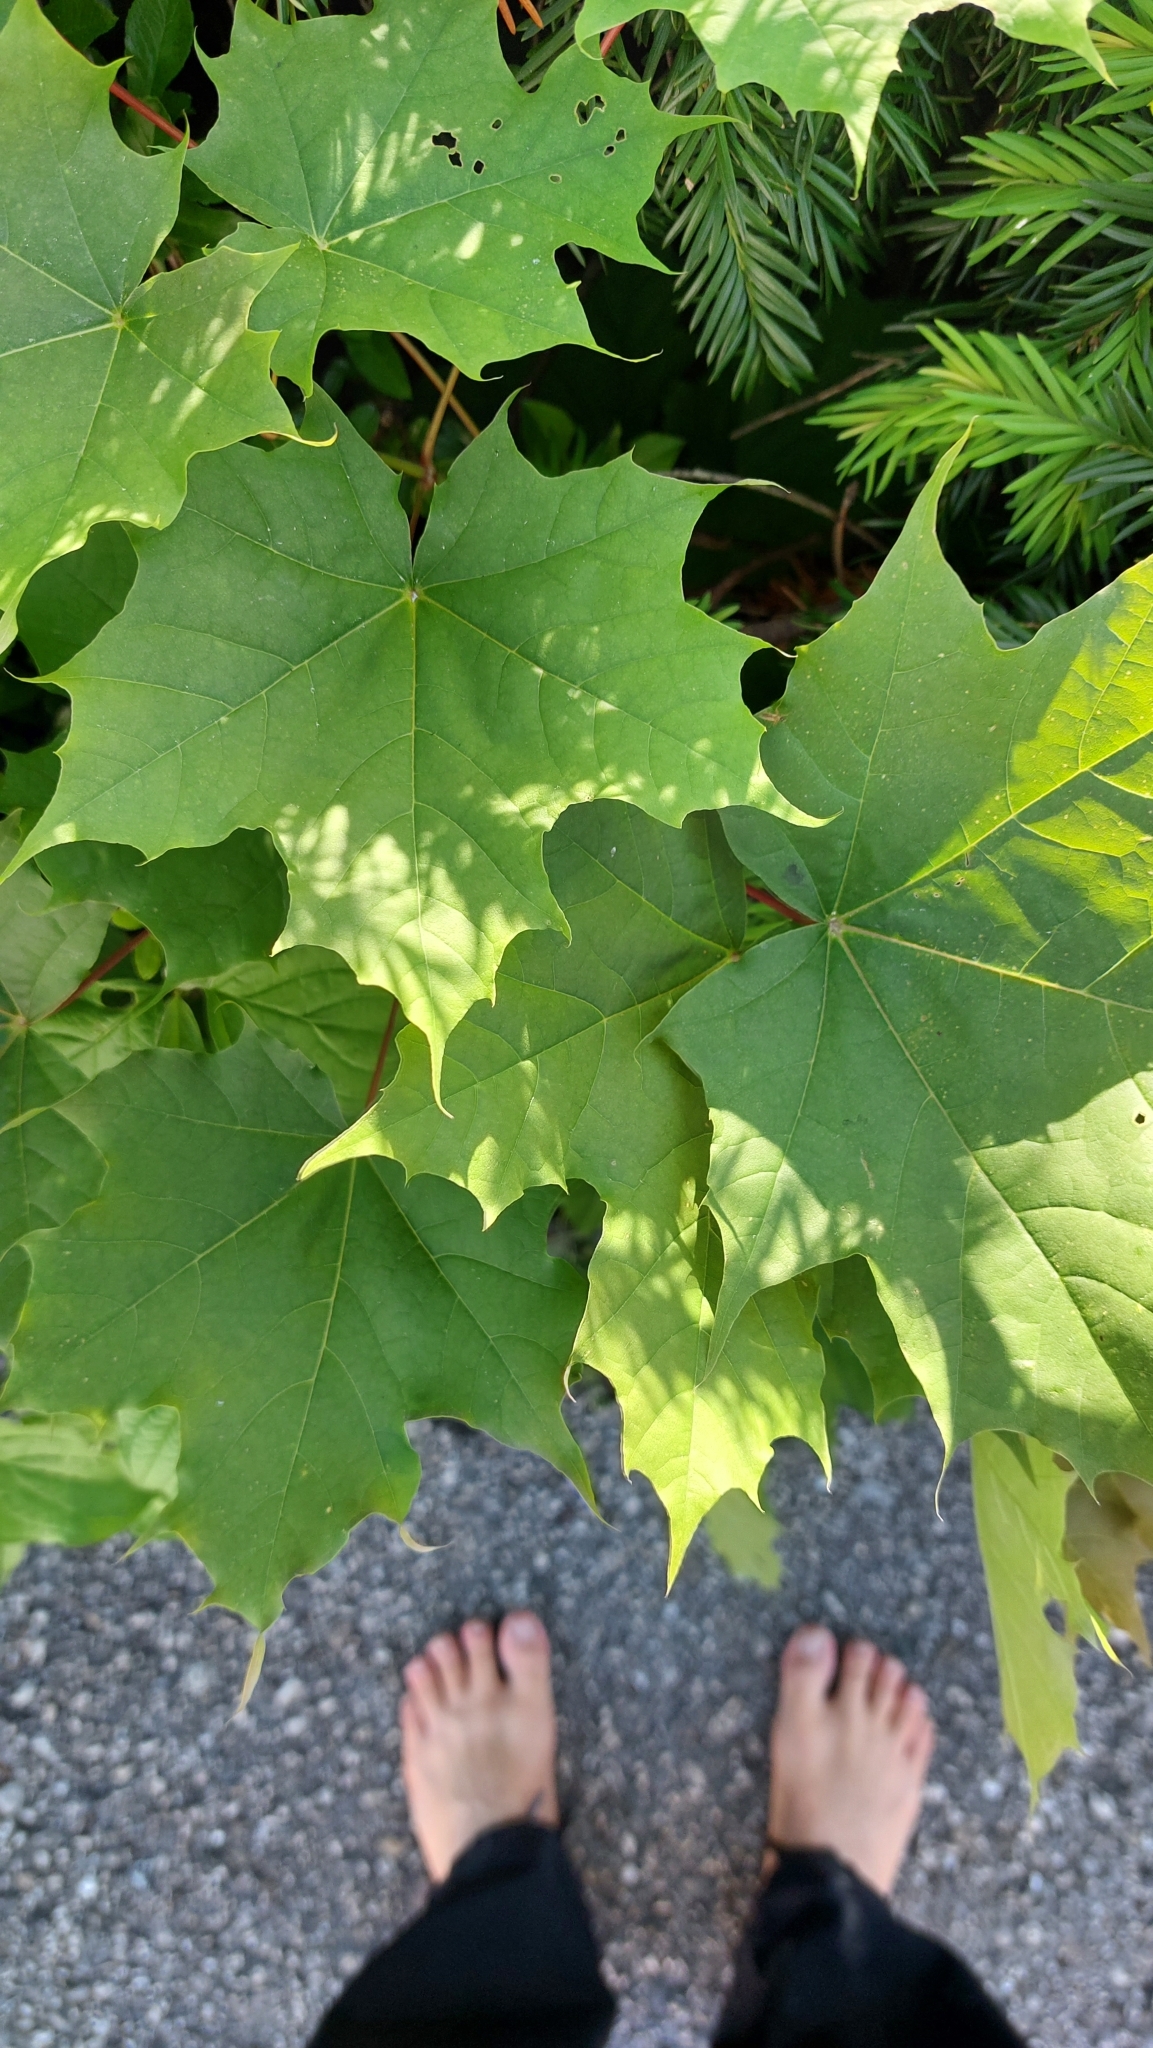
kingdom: Plantae
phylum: Tracheophyta
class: Magnoliopsida
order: Sapindales
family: Sapindaceae
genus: Acer
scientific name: Acer platanoides
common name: Norway maple
